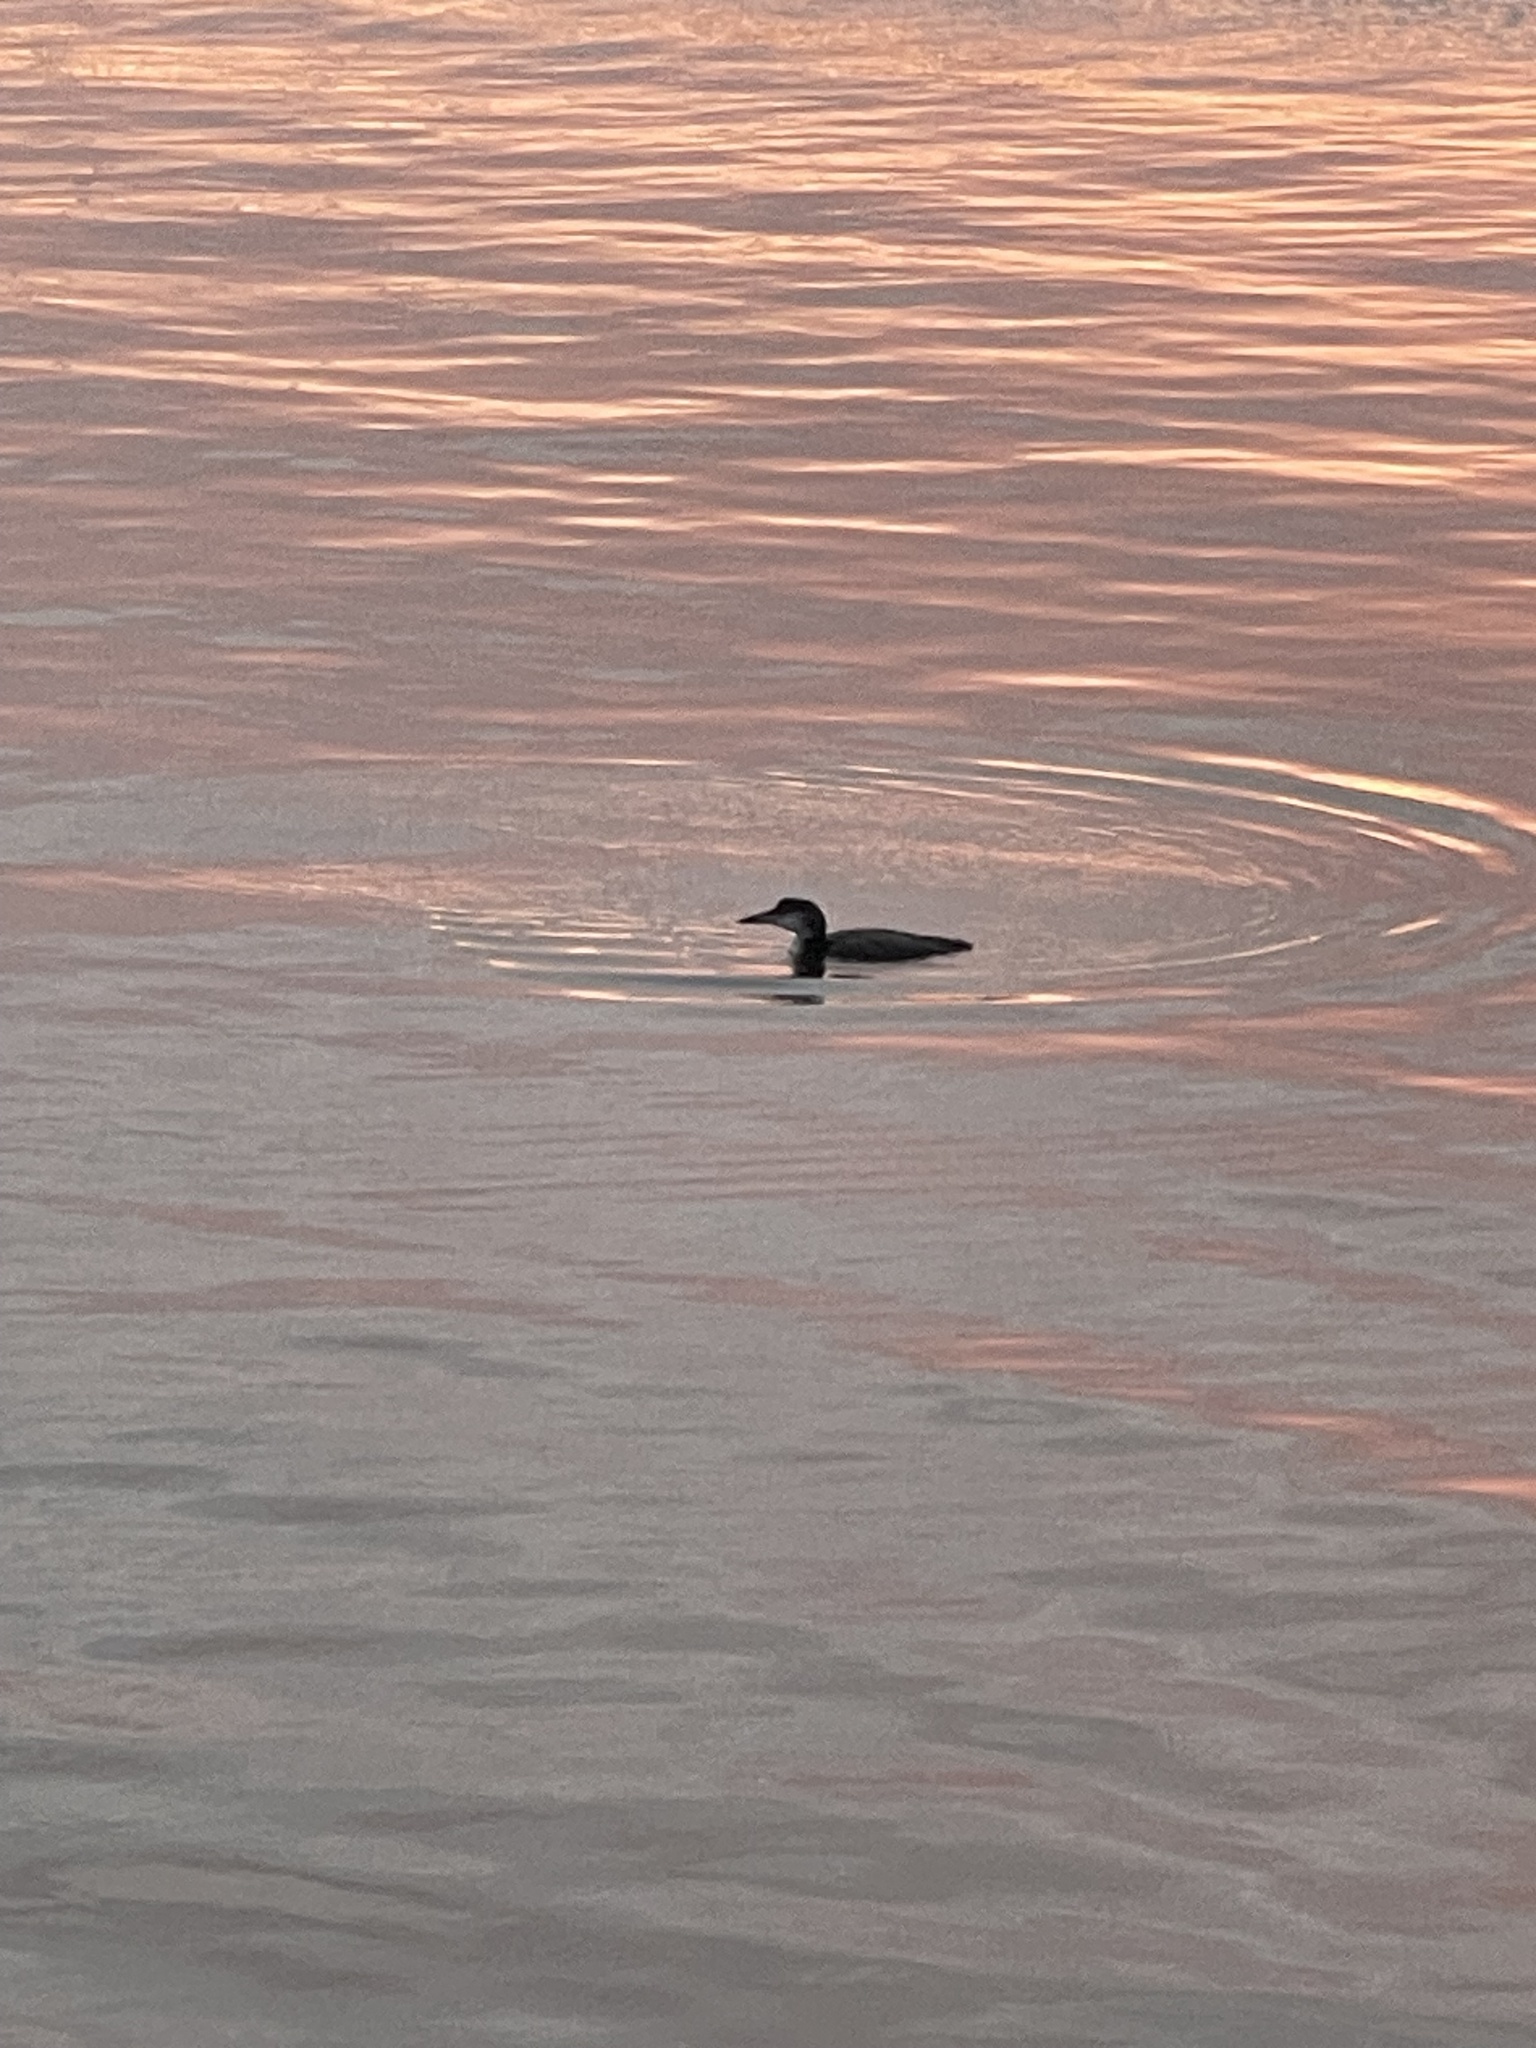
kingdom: Animalia
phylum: Chordata
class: Aves
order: Gaviiformes
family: Gaviidae
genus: Gavia
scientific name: Gavia immer
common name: Common loon
